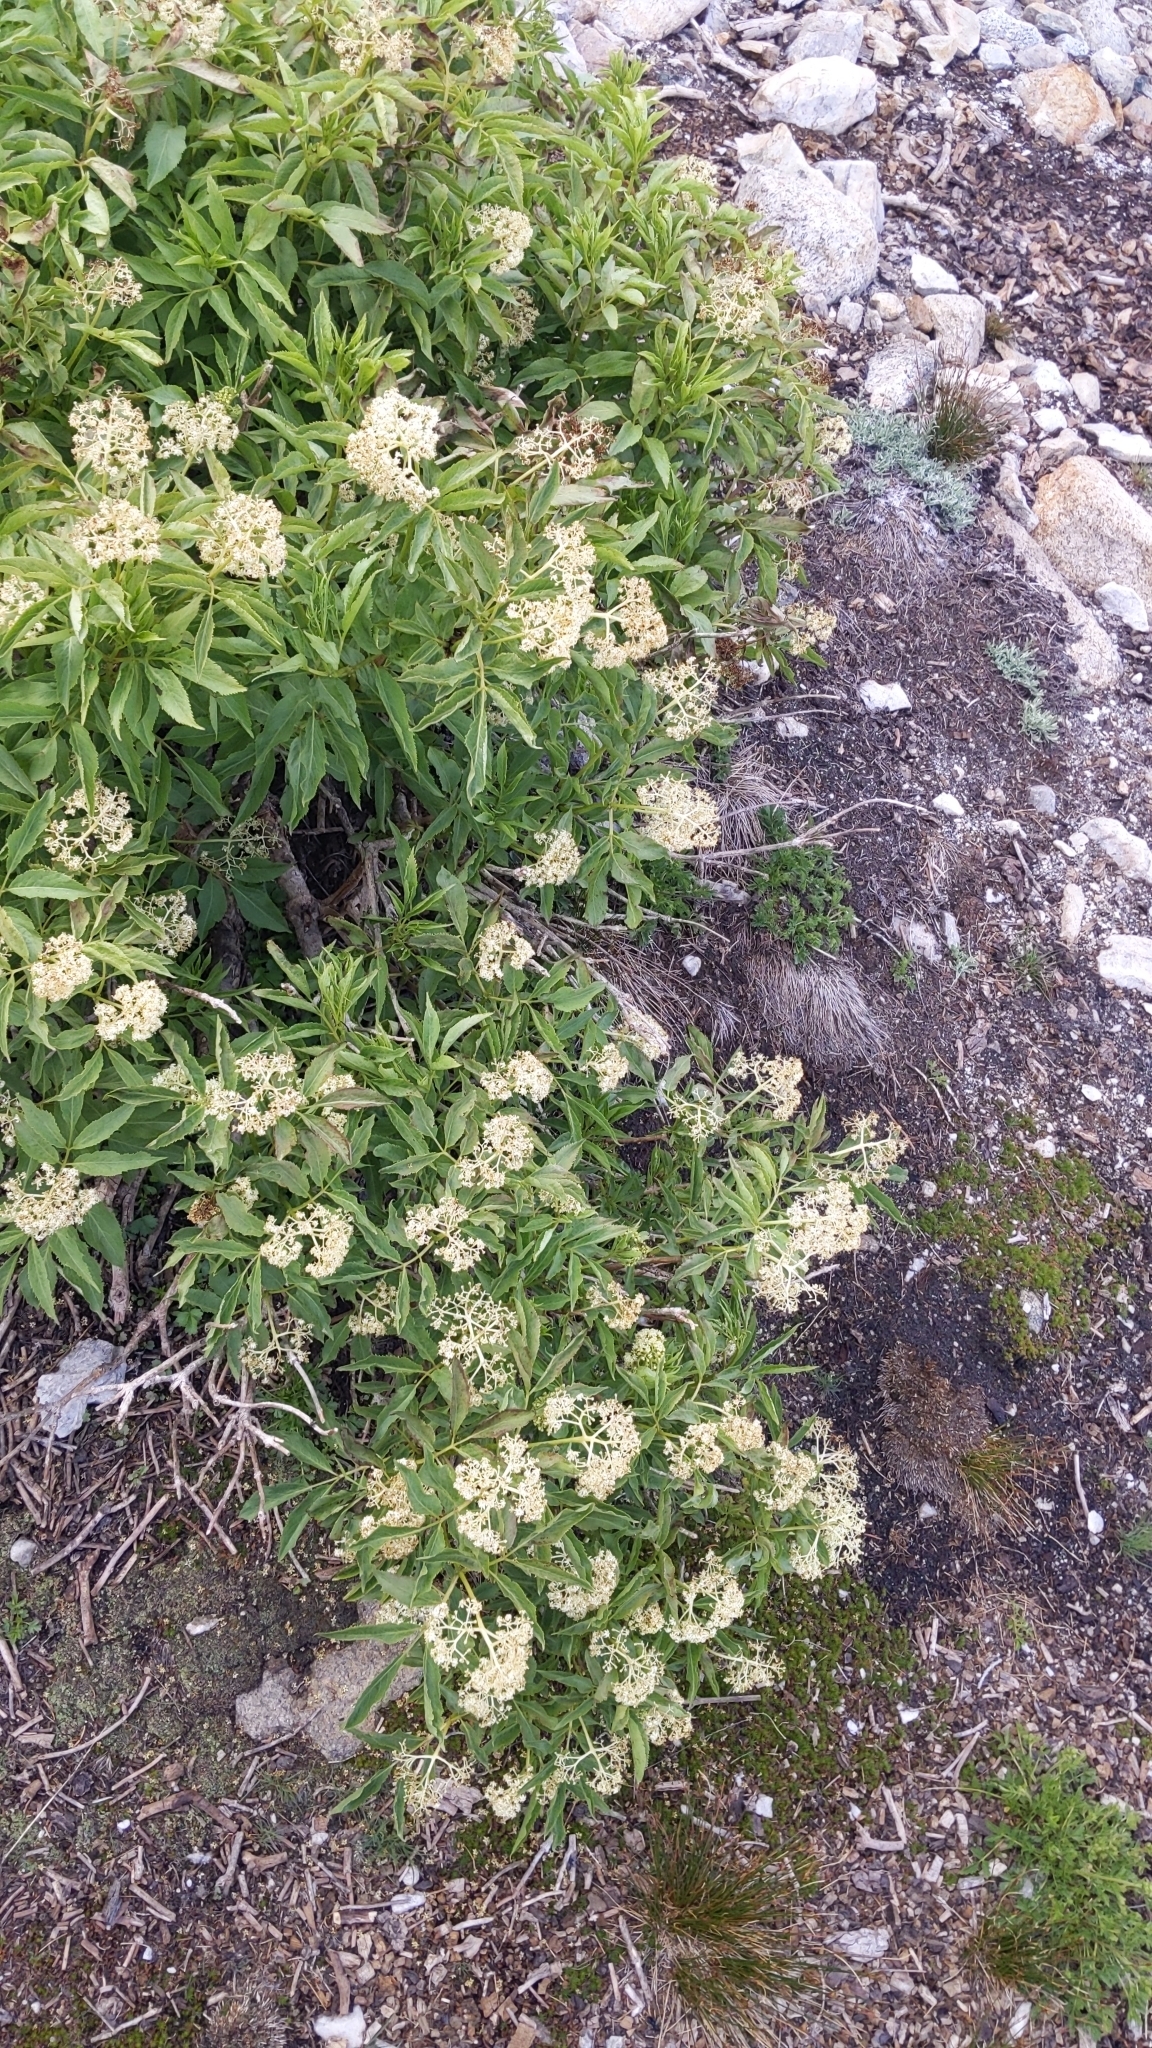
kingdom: Plantae
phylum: Tracheophyta
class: Magnoliopsida
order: Dipsacales
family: Viburnaceae
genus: Sambucus
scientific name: Sambucus racemosa
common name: Red-berried elder
